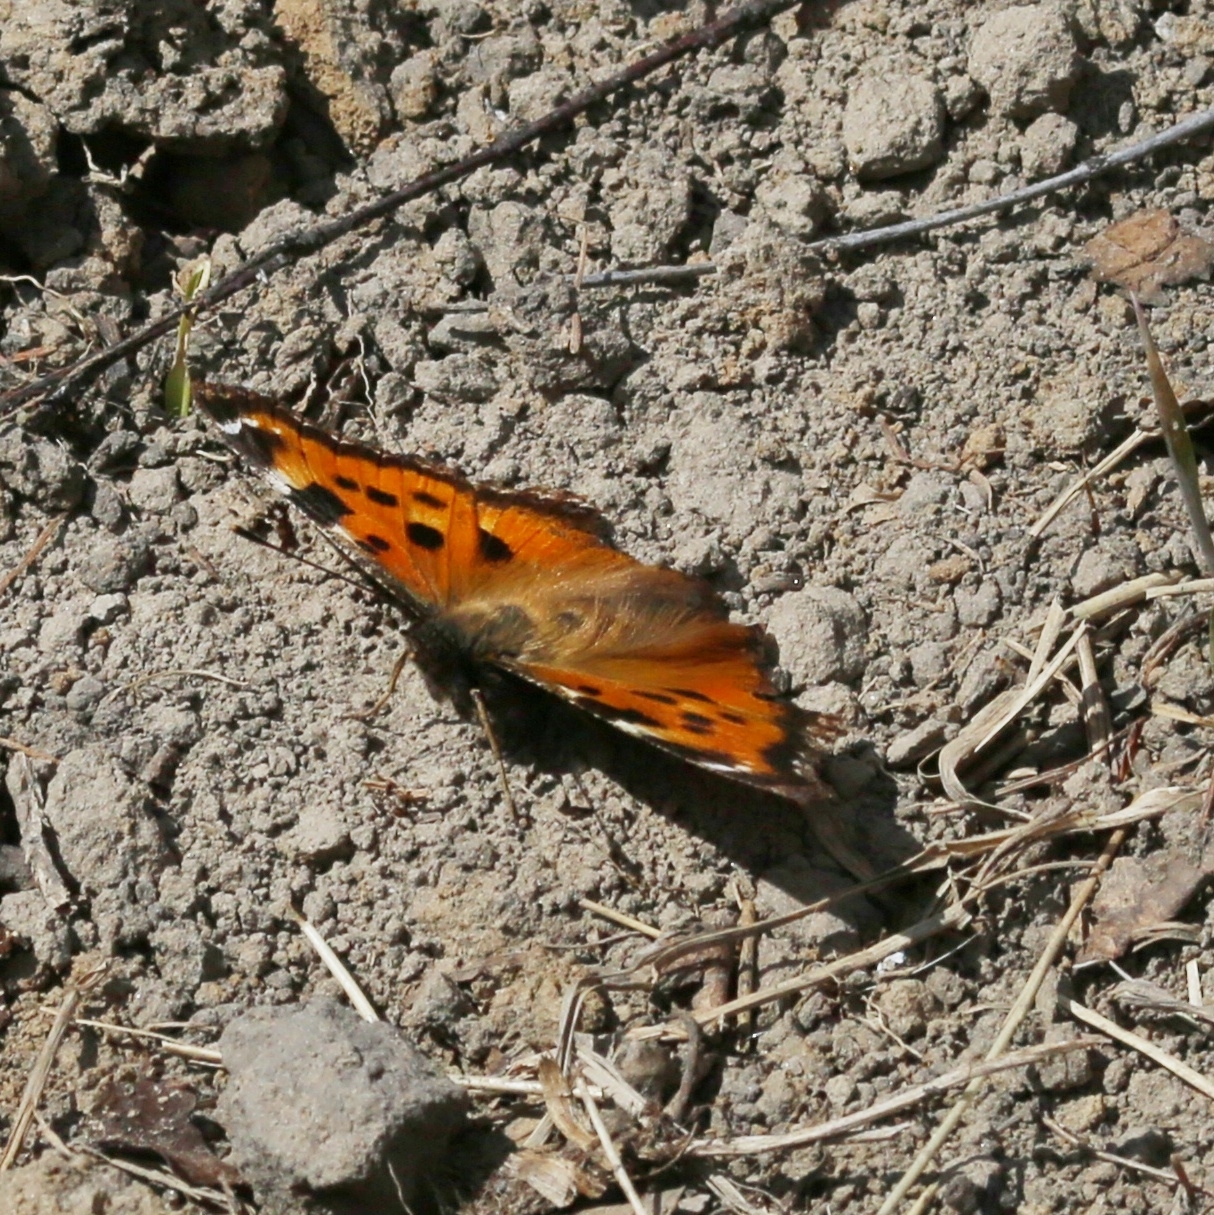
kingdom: Animalia
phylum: Arthropoda
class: Insecta
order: Lepidoptera
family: Nymphalidae
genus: Nymphalis
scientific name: Nymphalis xanthomelas
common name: Scarce tortoiseshell
